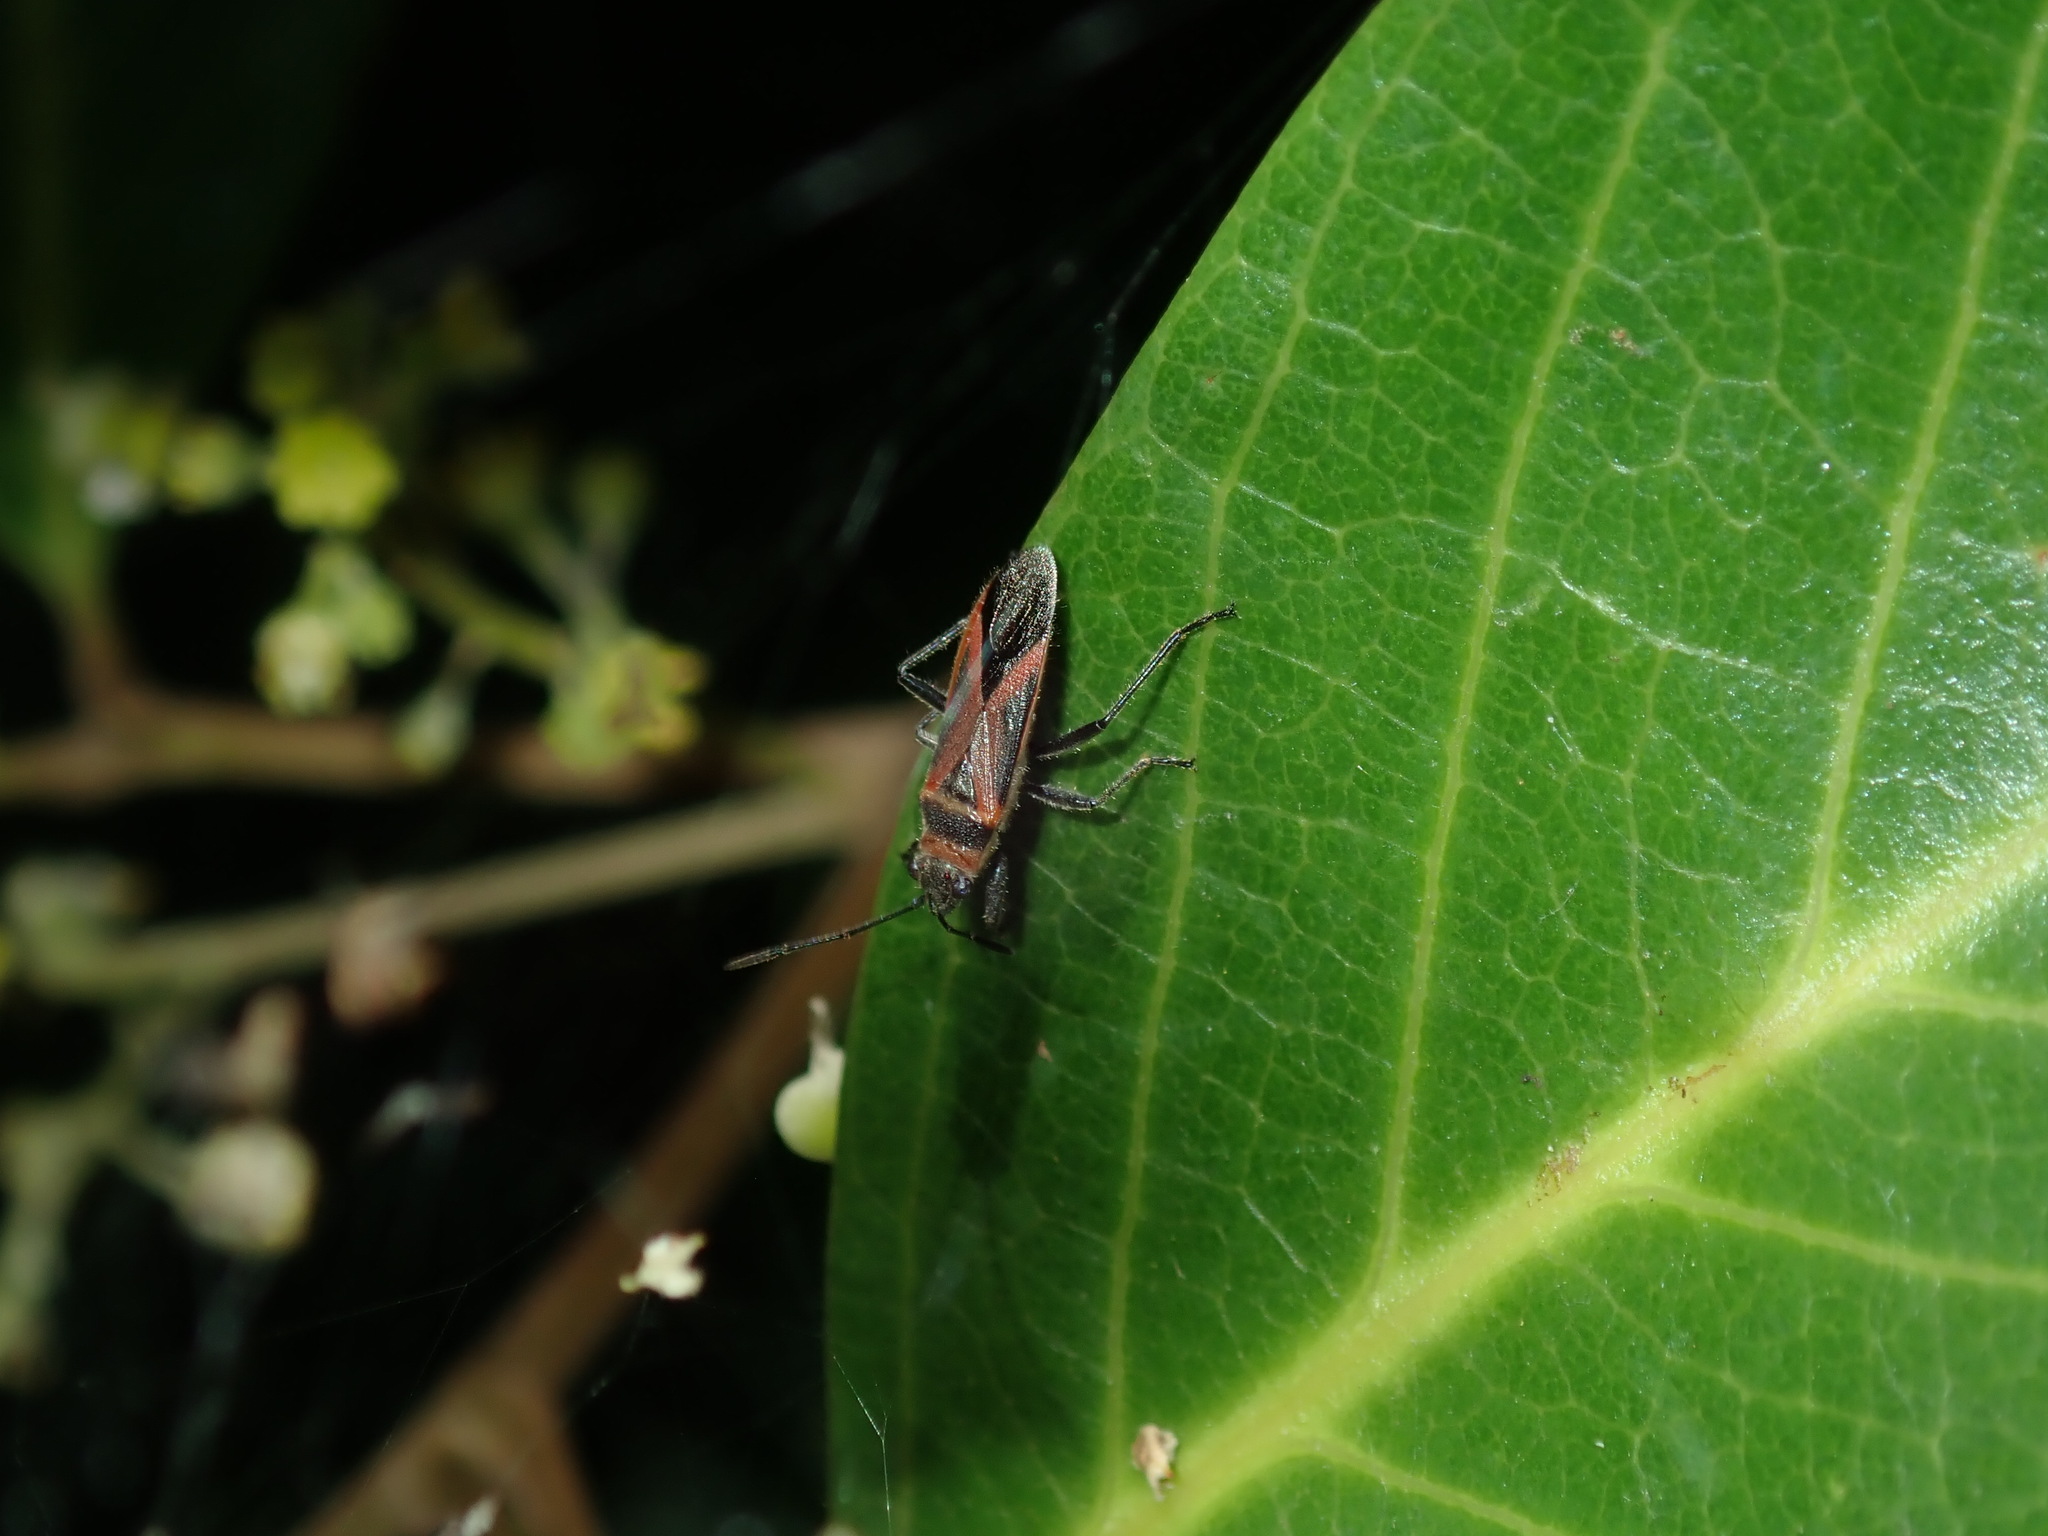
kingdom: Animalia
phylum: Arthropoda
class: Insecta
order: Hemiptera
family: Lygaeidae
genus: Arocatus
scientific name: Arocatus rusticus
